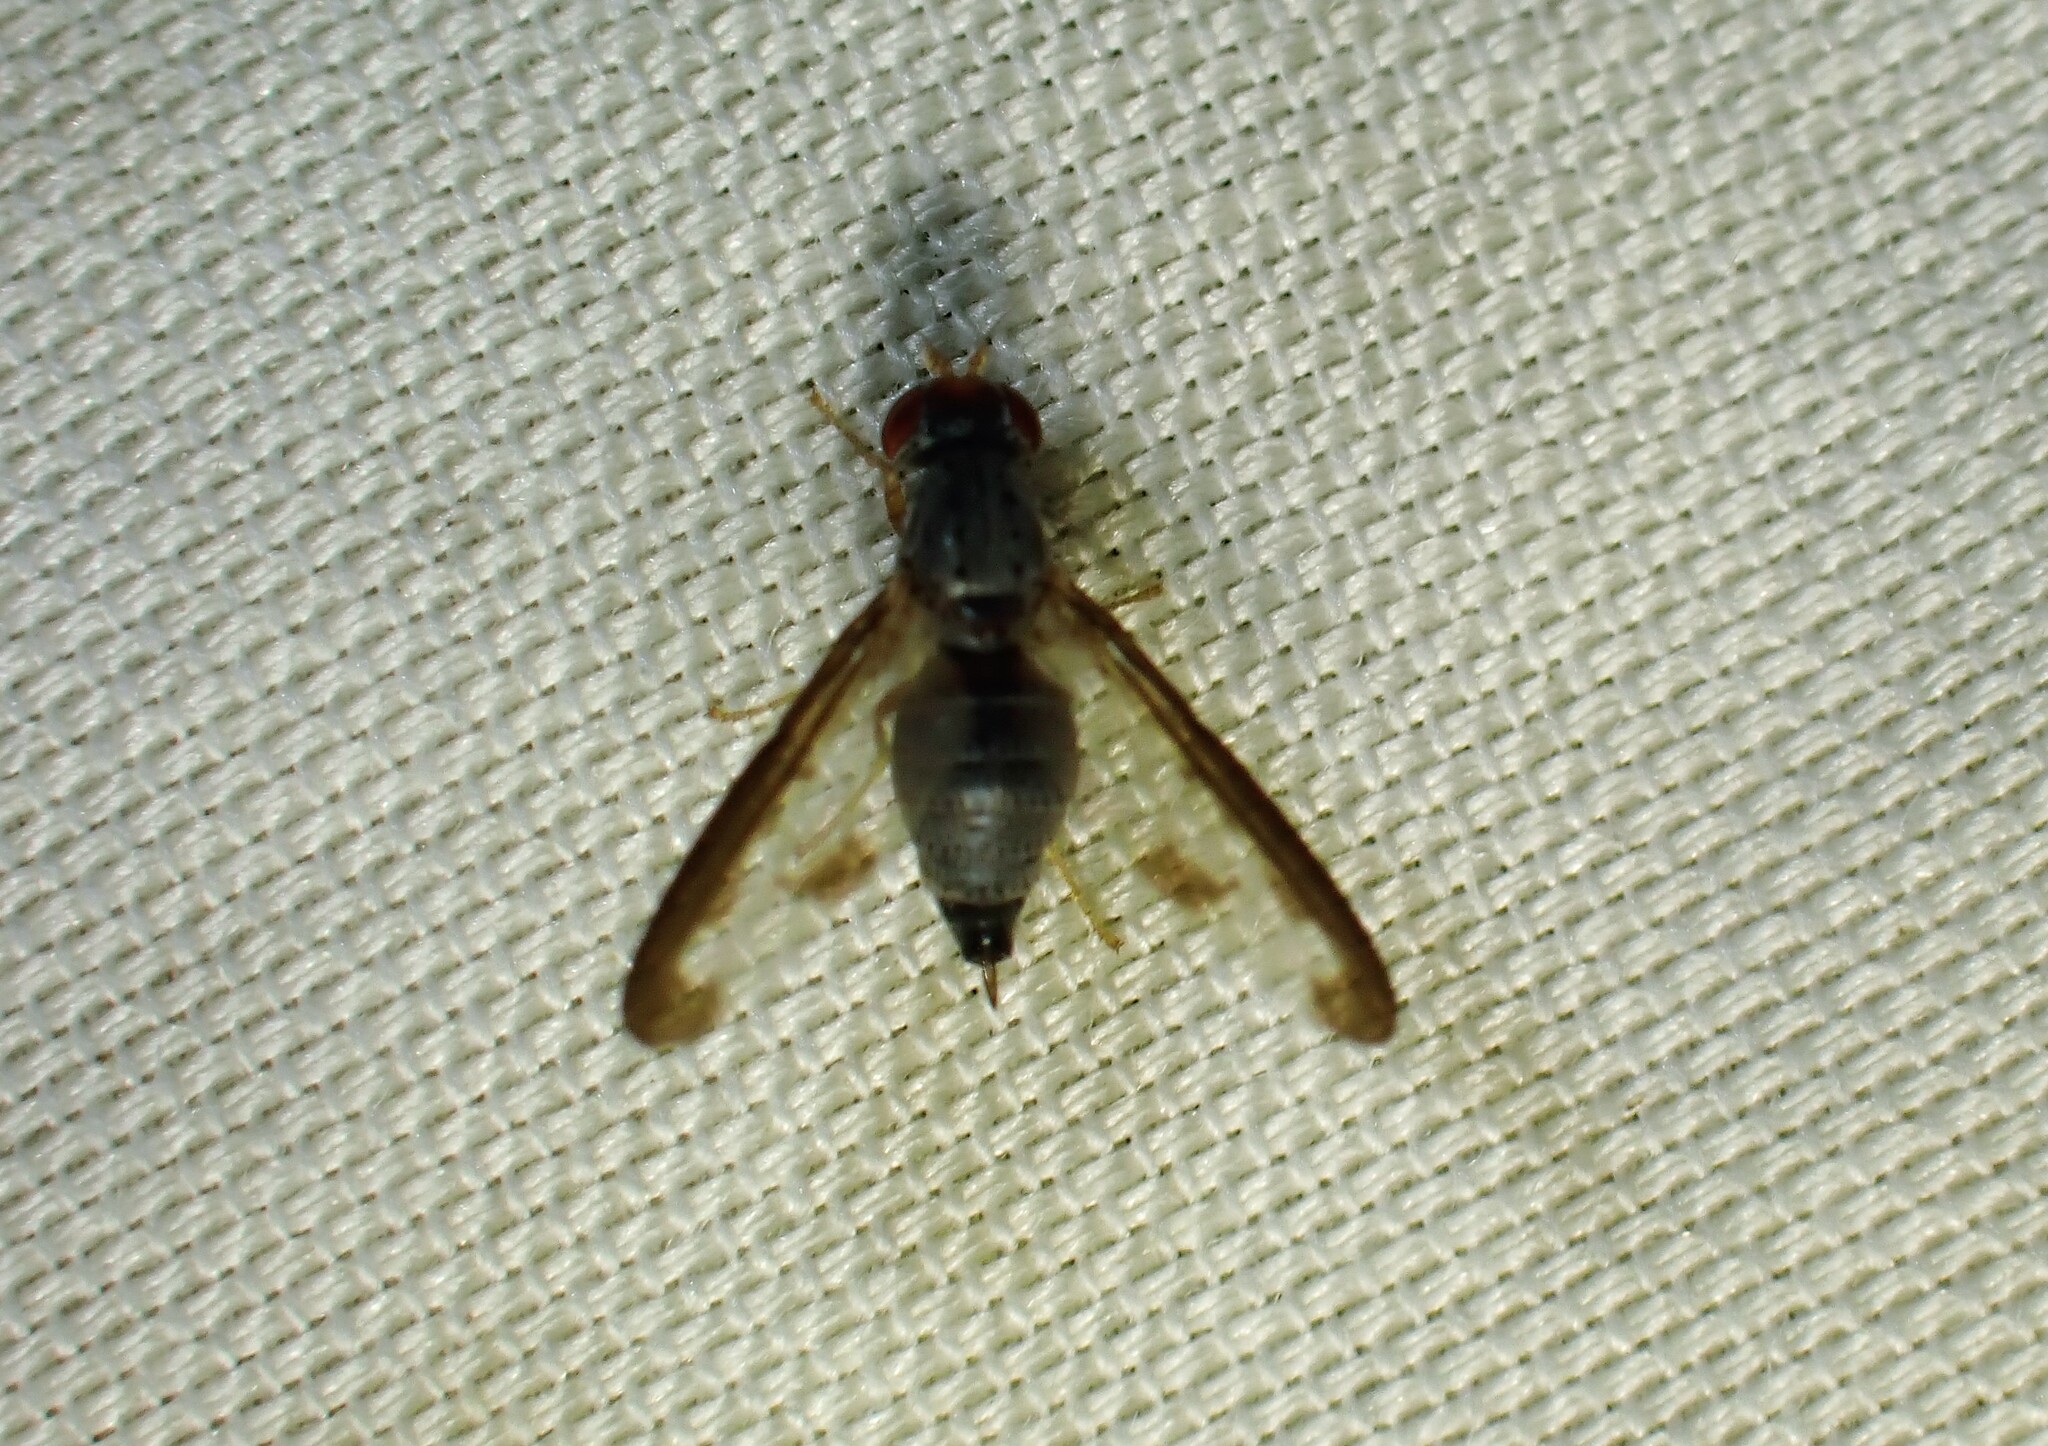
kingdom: Animalia
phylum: Arthropoda
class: Insecta
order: Diptera
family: Pallopteridae
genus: Palloptera
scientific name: Palloptera setosa
